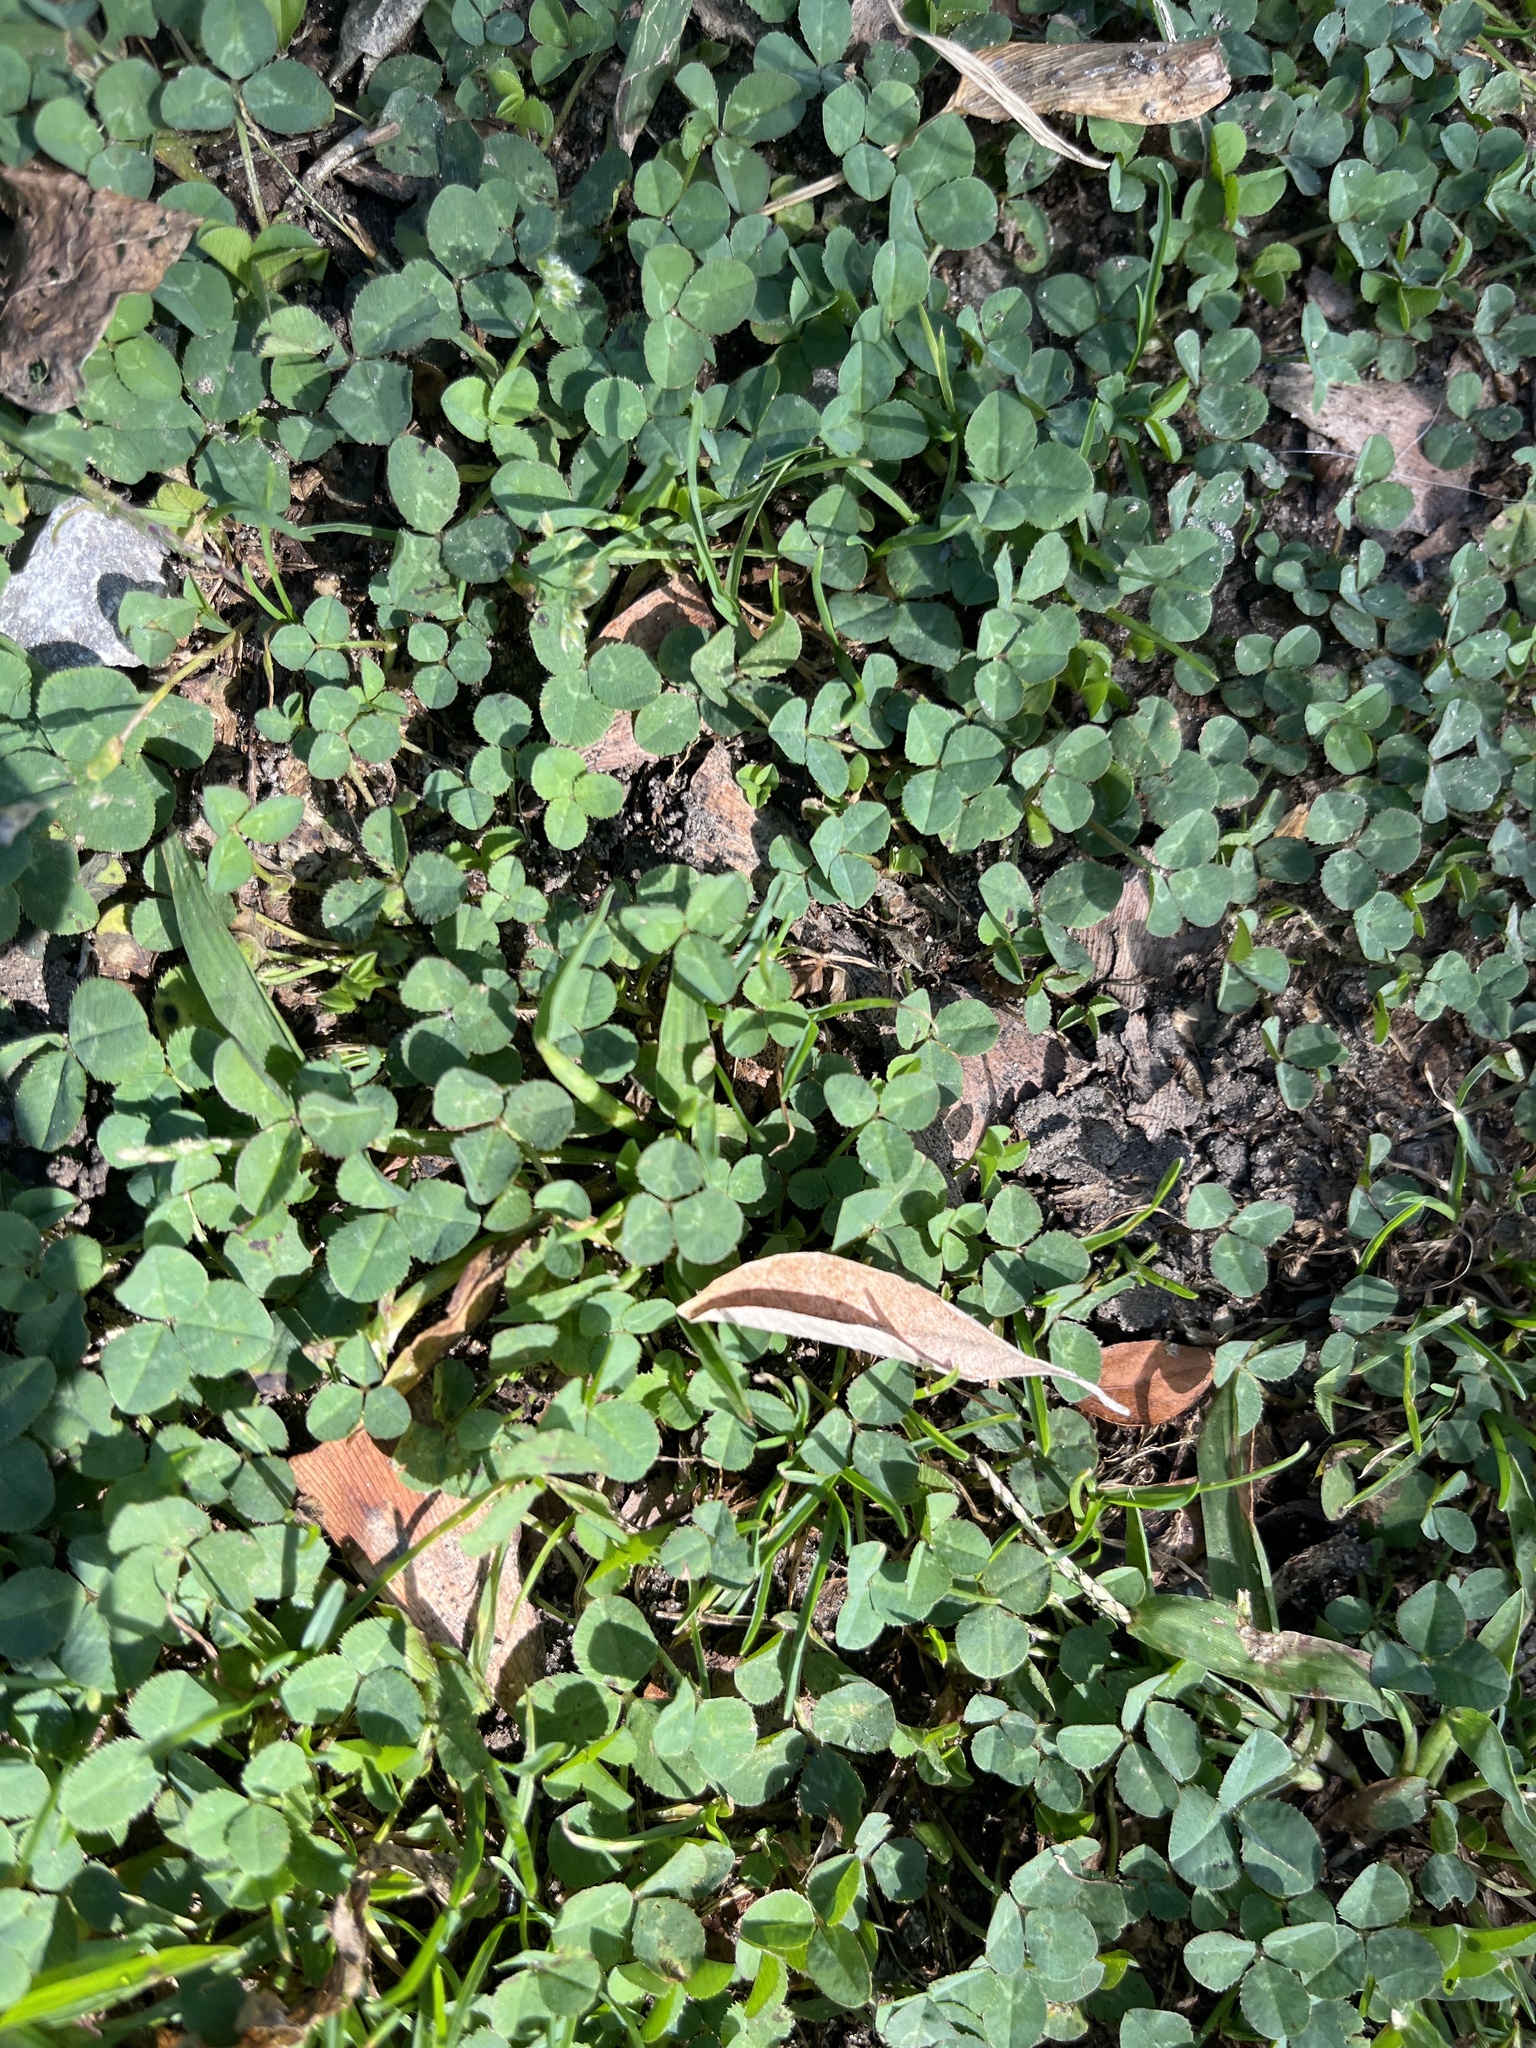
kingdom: Plantae
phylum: Tracheophyta
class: Magnoliopsida
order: Fabales
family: Fabaceae
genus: Trifolium
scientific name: Trifolium repens
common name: White clover
